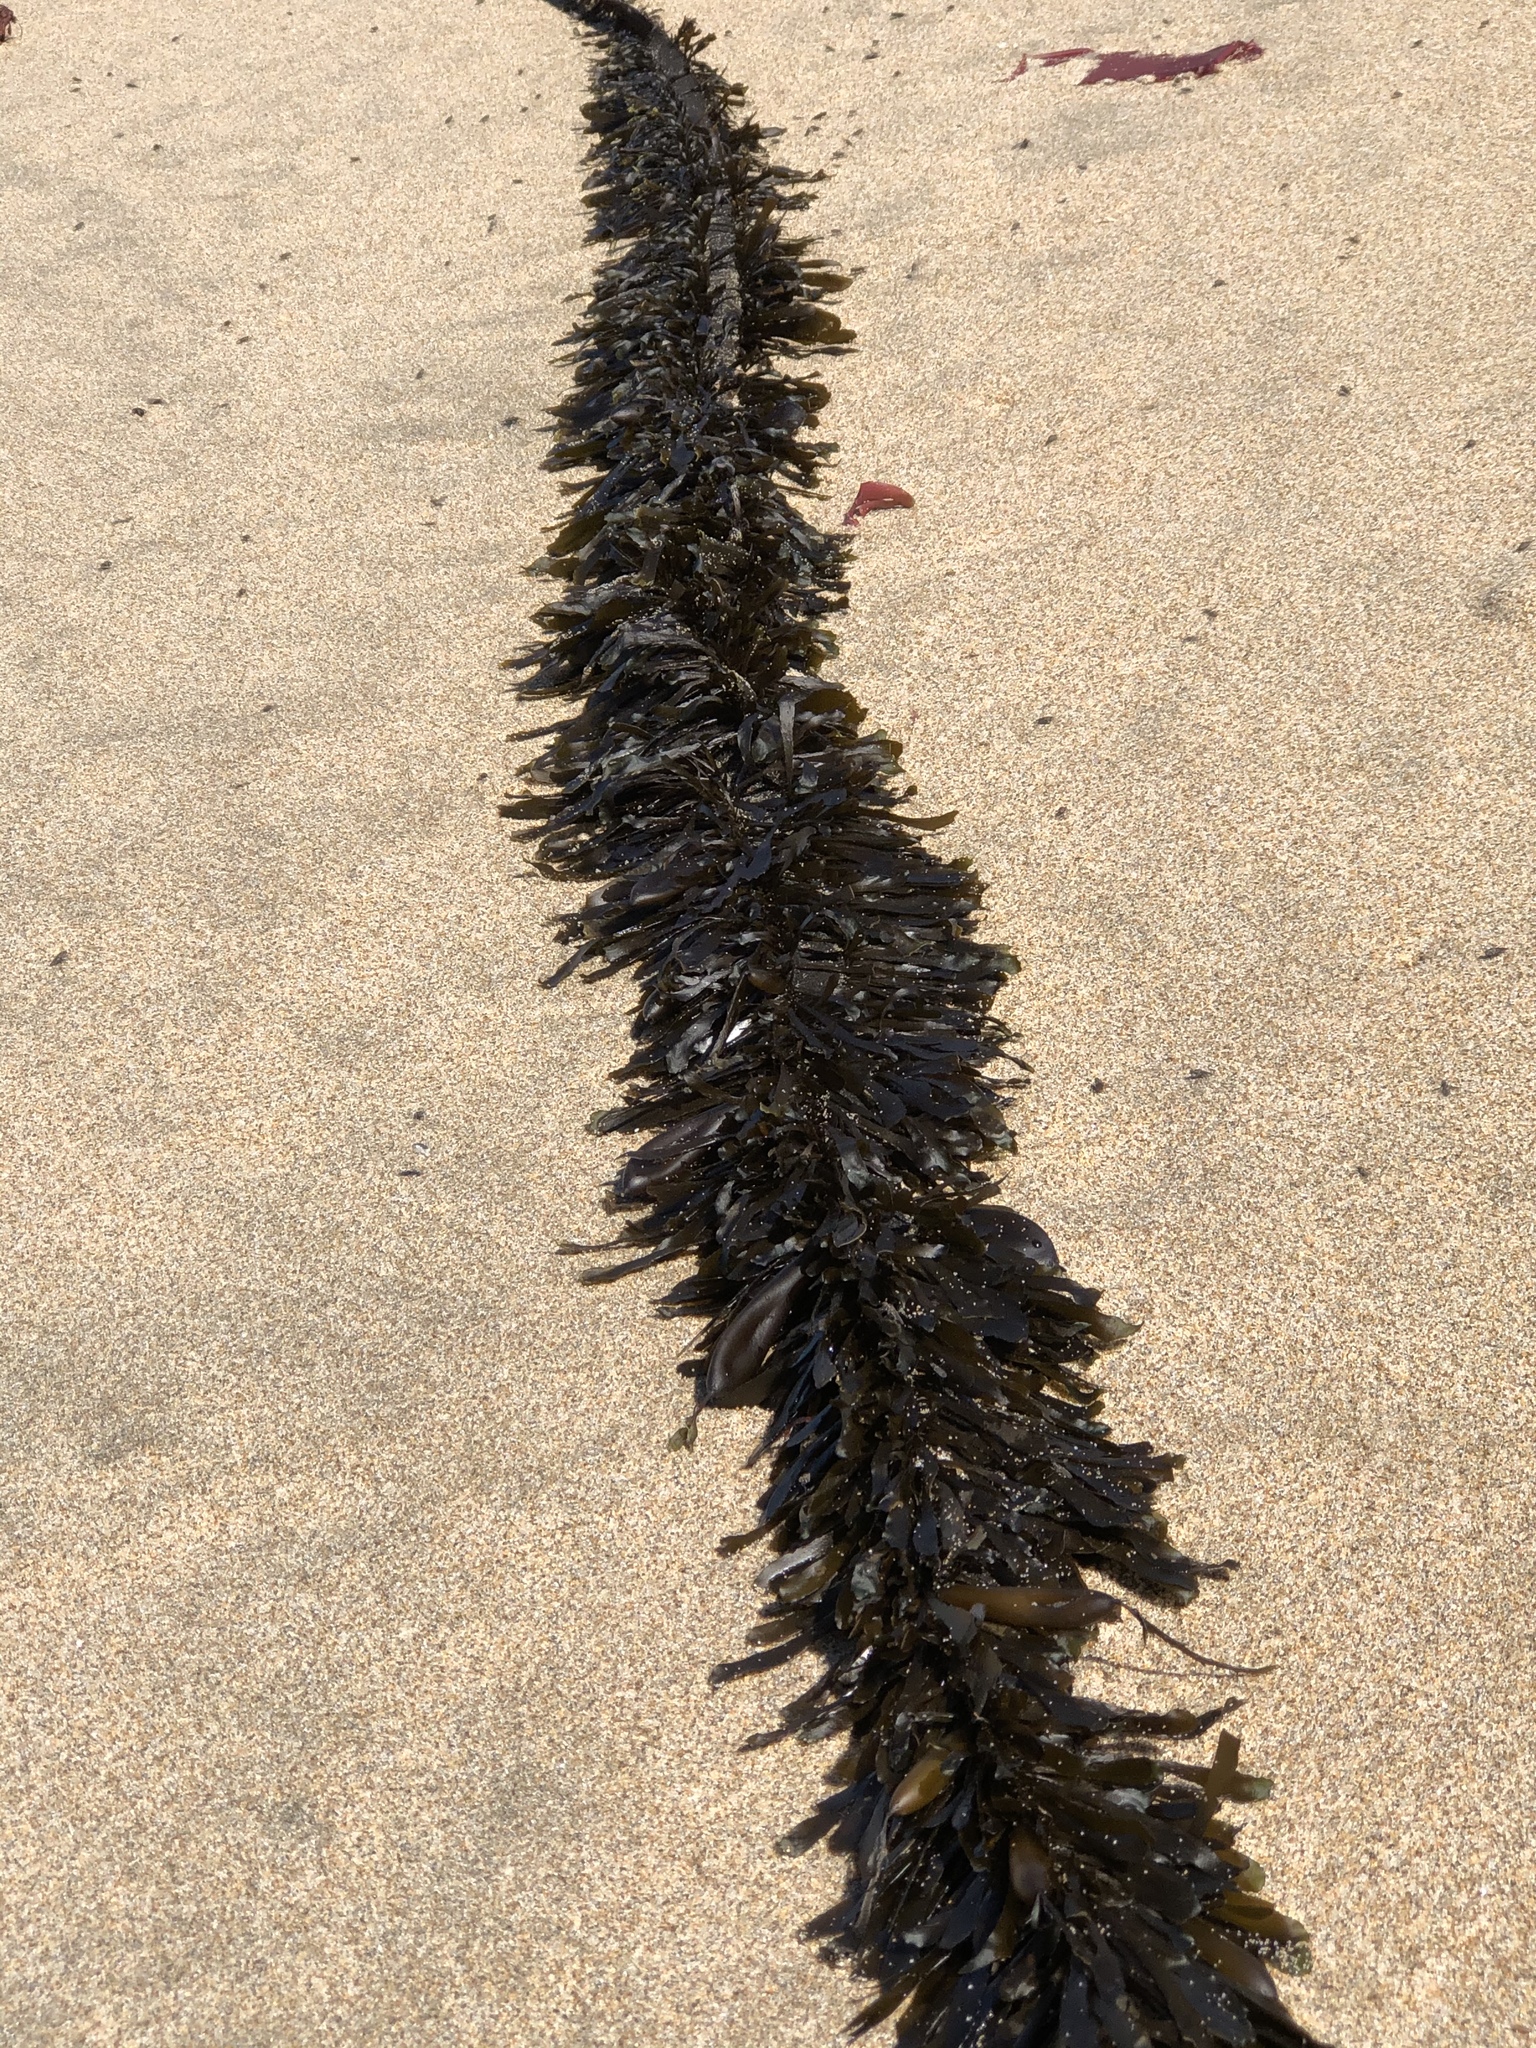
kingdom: Chromista
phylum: Ochrophyta
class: Phaeophyceae
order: Laminariales
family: Lessoniaceae
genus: Egregia
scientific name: Egregia menziesii
